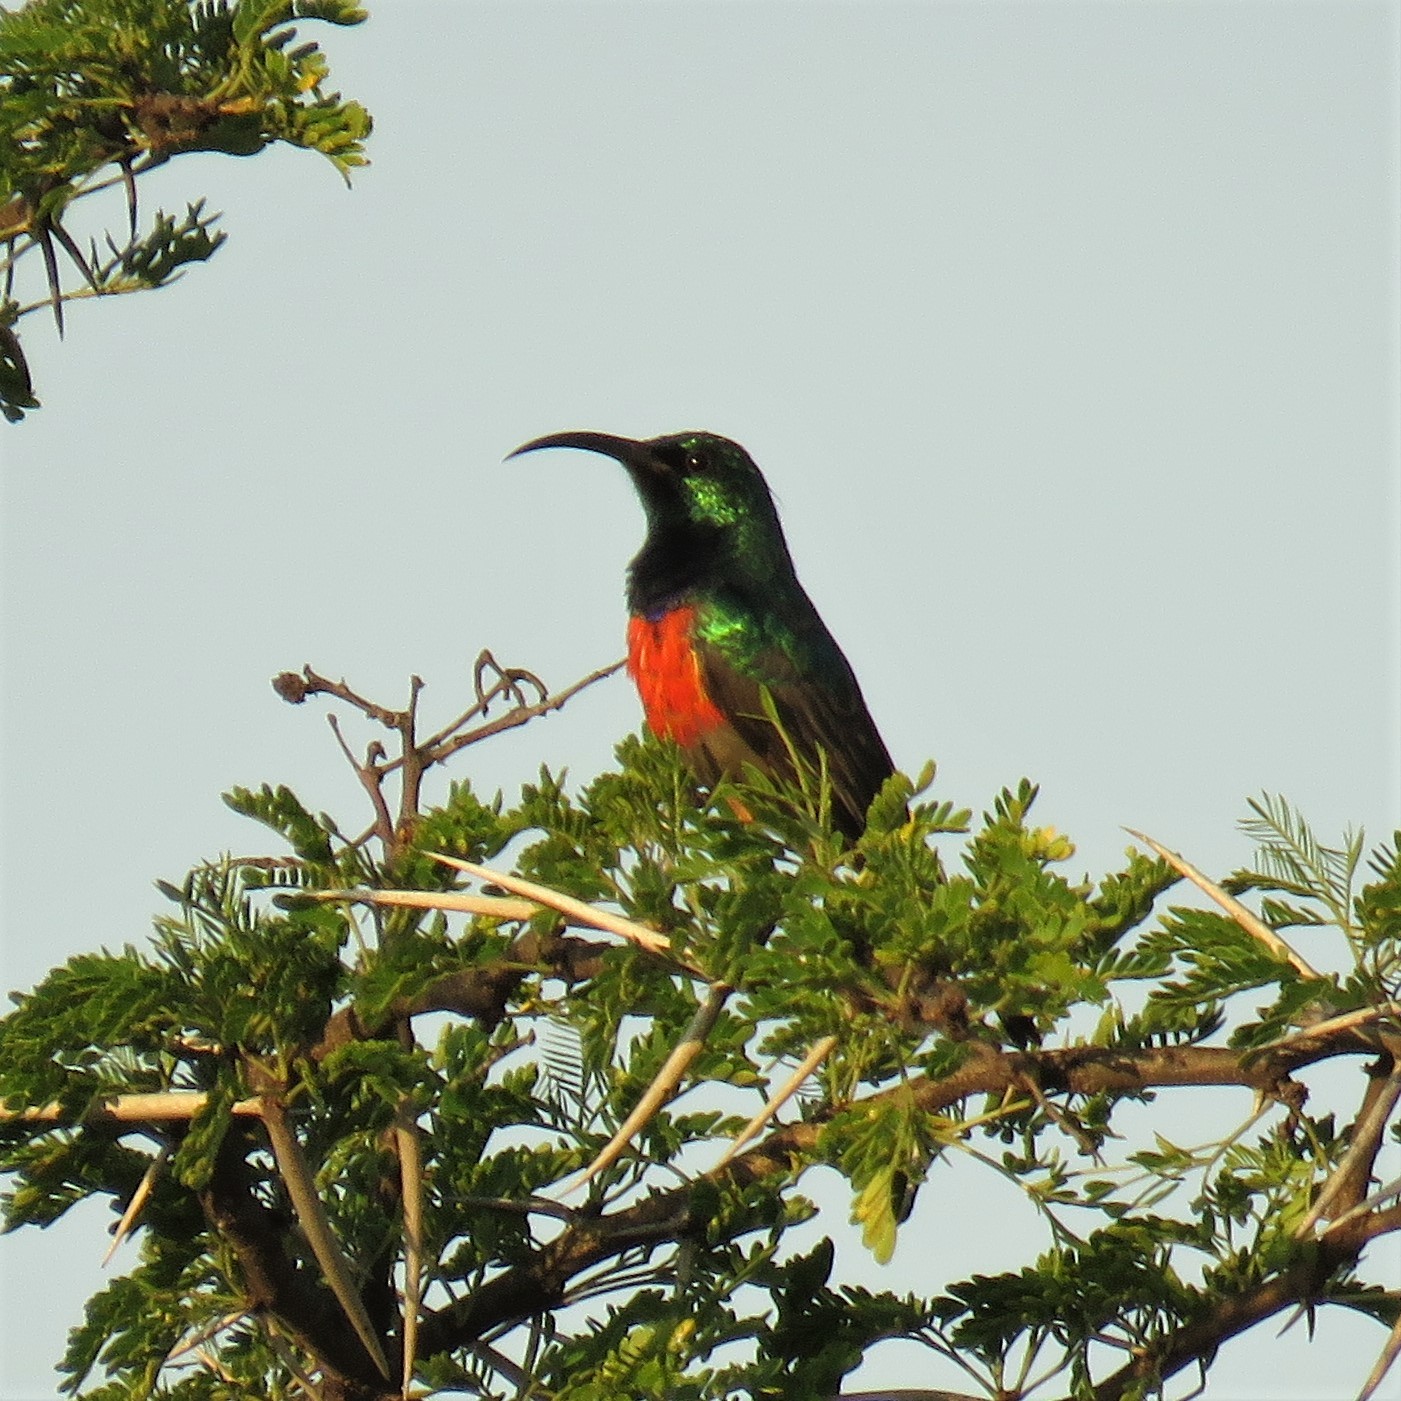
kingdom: Animalia
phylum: Chordata
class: Aves
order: Passeriformes
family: Nectariniidae
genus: Cinnyris
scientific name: Cinnyris afer
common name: Greater double-collared sunbird
